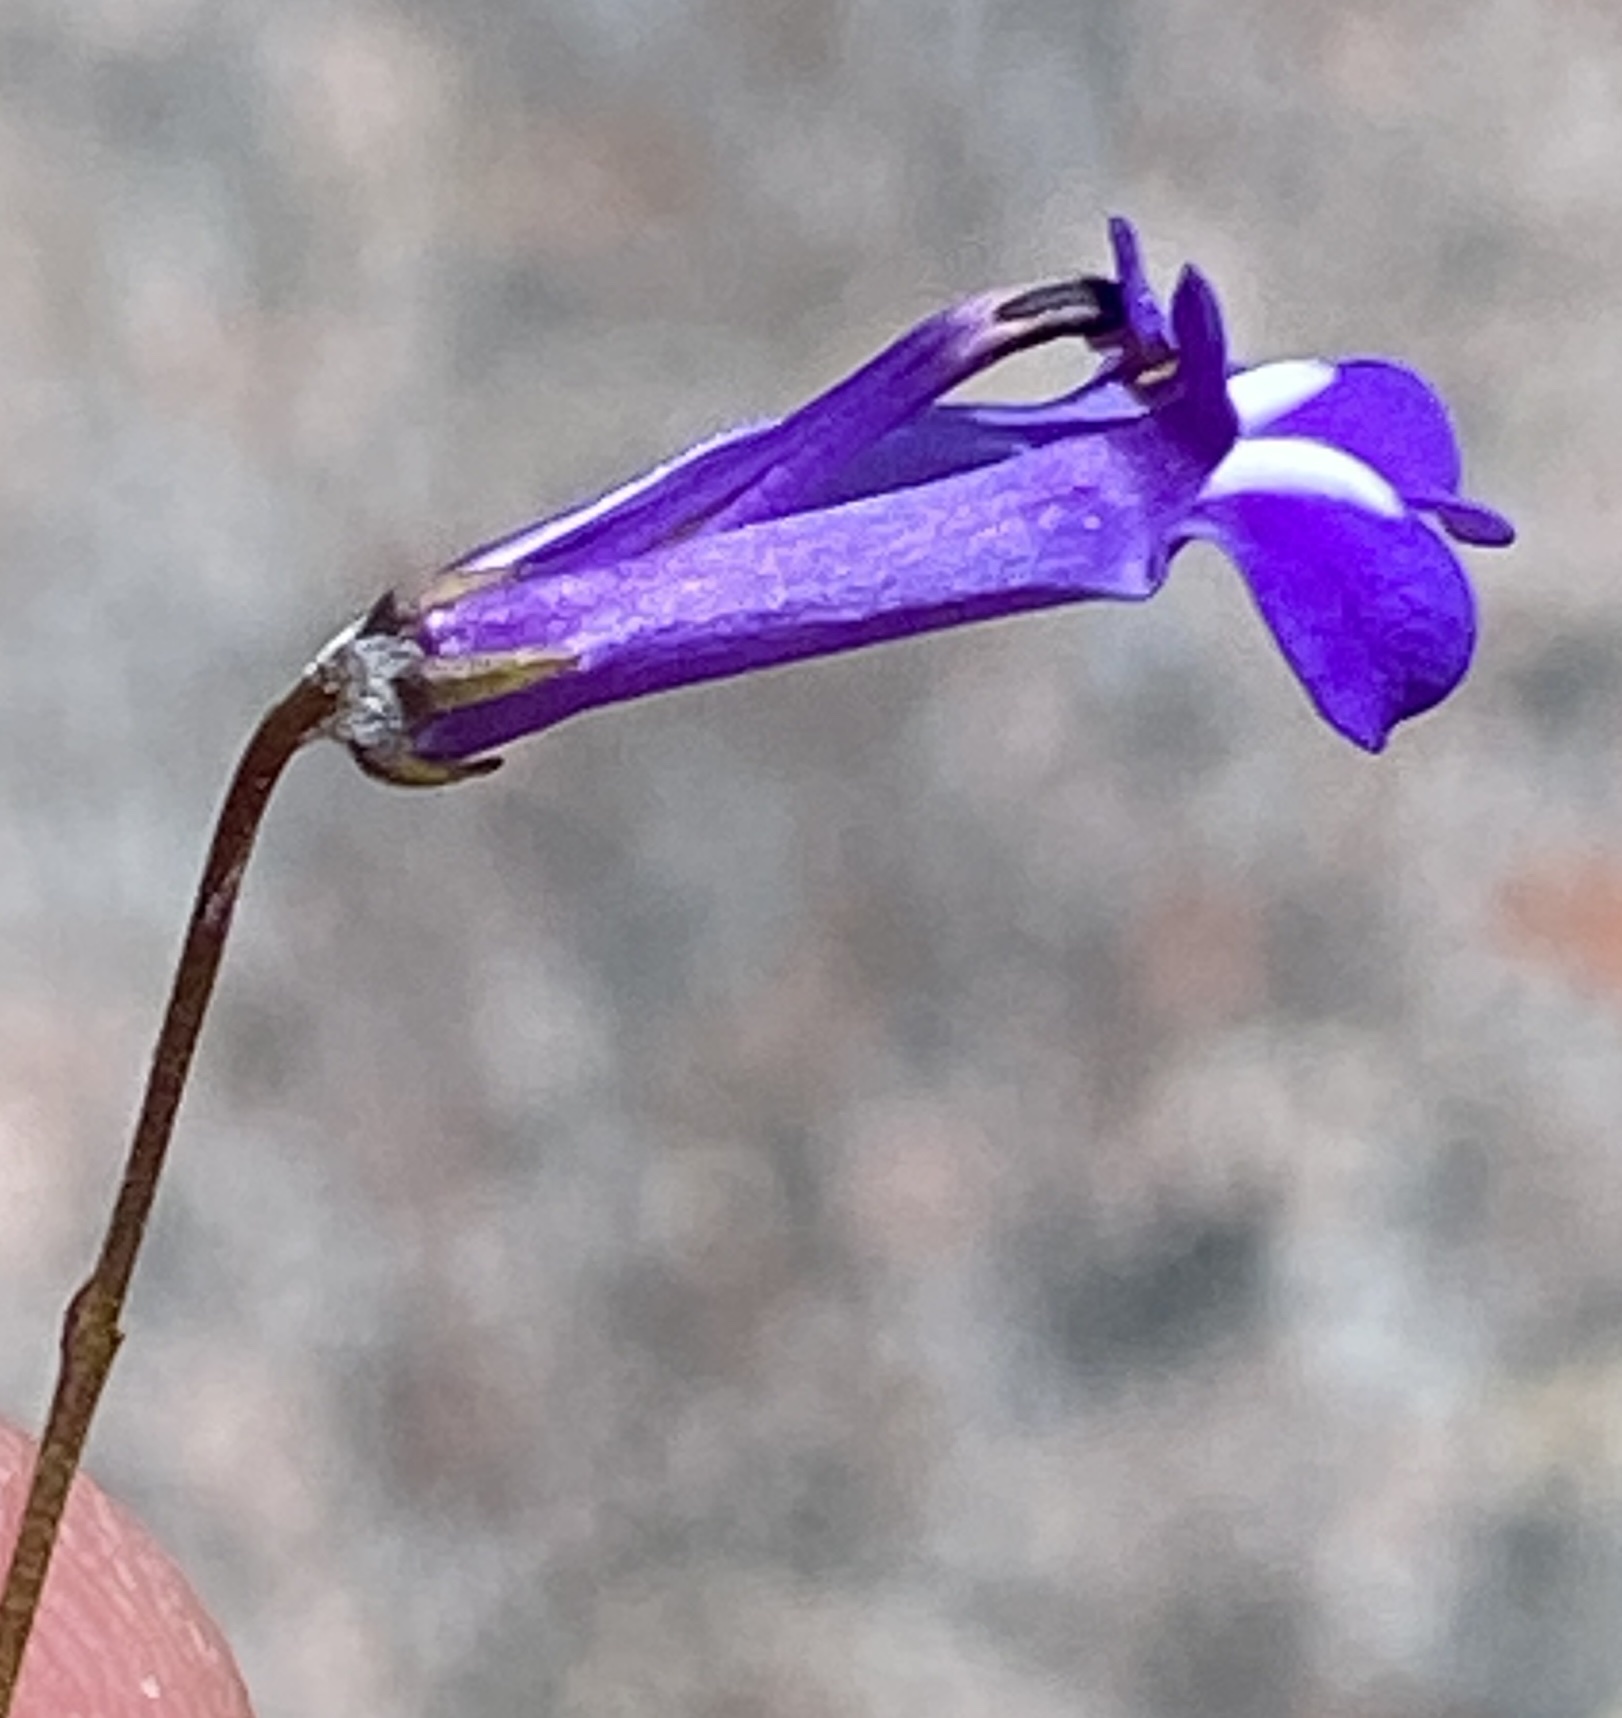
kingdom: Plantae
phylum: Tracheophyta
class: Magnoliopsida
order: Asterales
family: Campanulaceae
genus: Lobelia
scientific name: Lobelia coronopifolia
